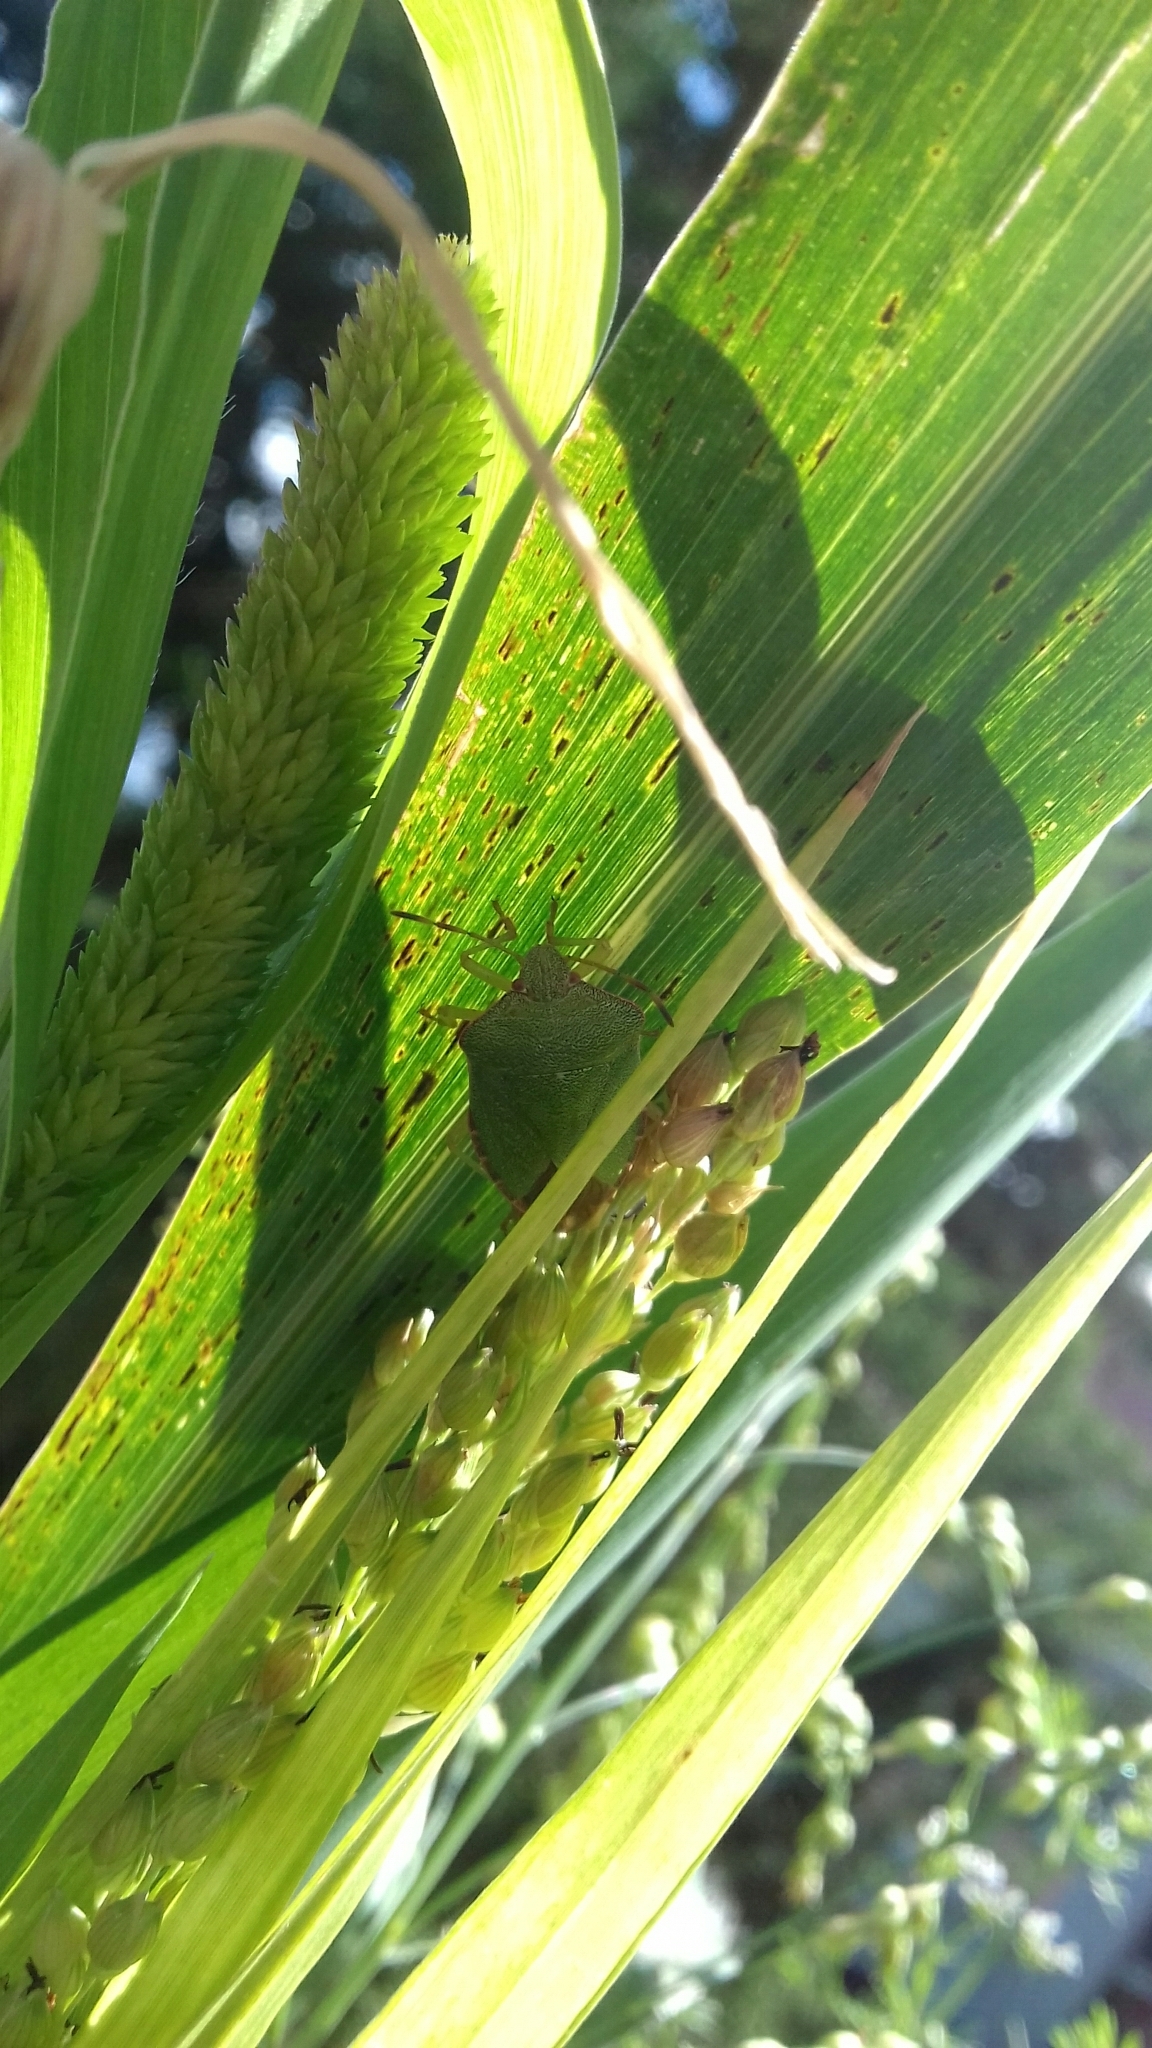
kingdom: Animalia
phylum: Arthropoda
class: Insecta
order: Hemiptera
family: Pentatomidae
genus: Palomena
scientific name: Palomena prasina
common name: Green shieldbug
